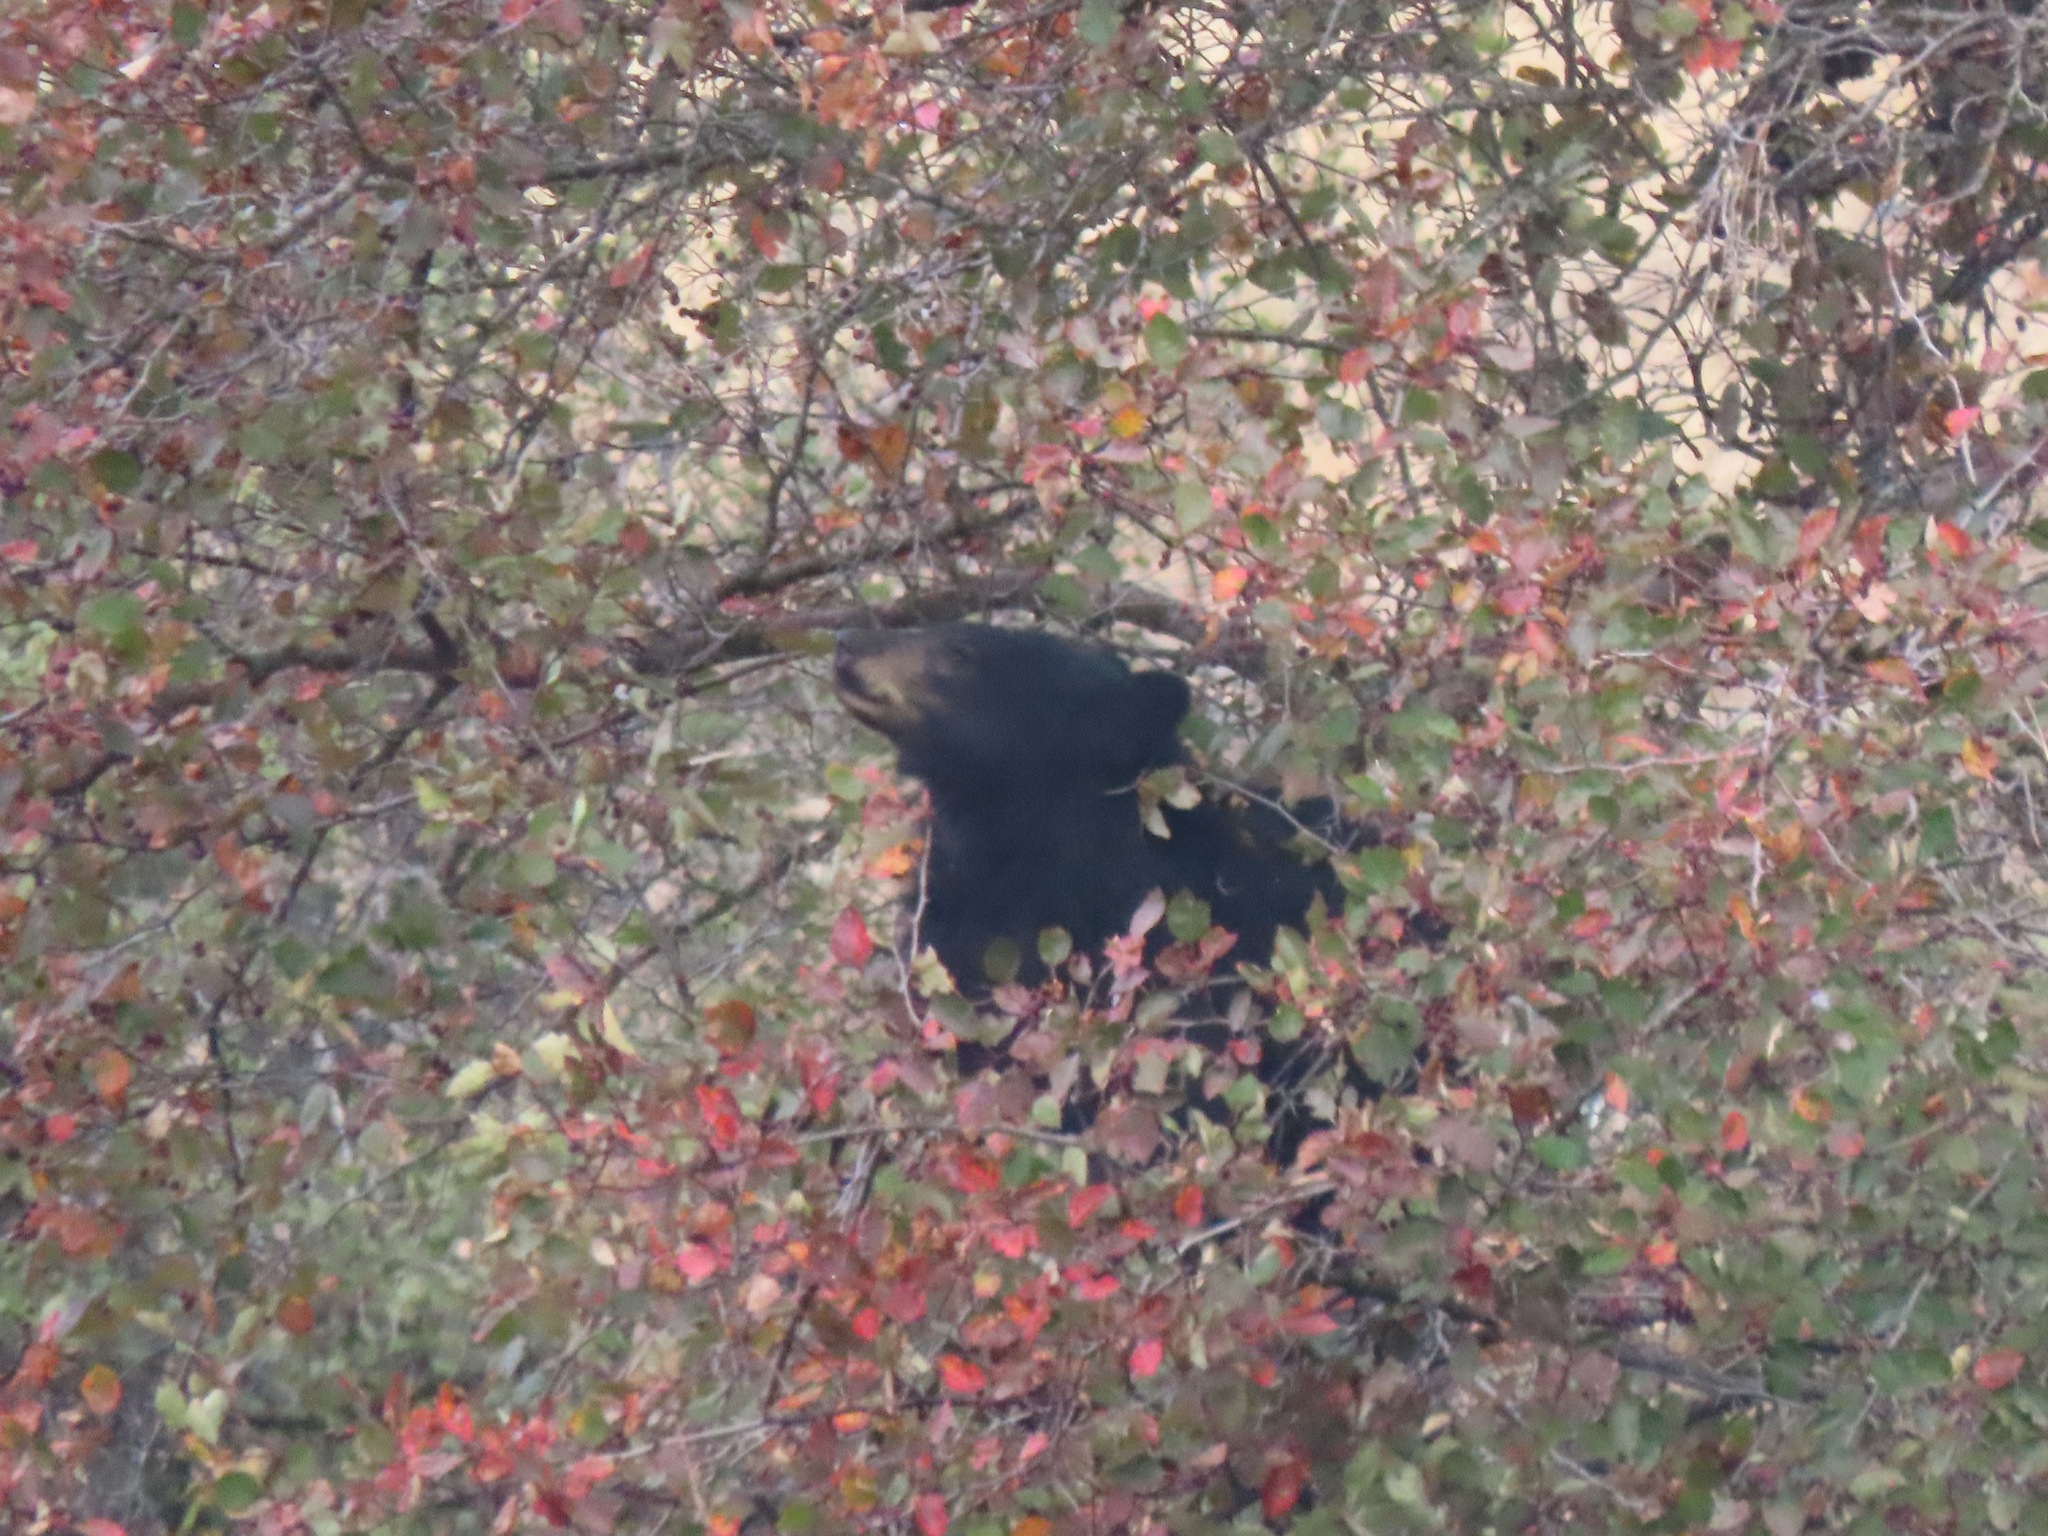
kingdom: Animalia
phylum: Chordata
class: Mammalia
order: Carnivora
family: Ursidae
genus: Ursus
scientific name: Ursus americanus
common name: American black bear
